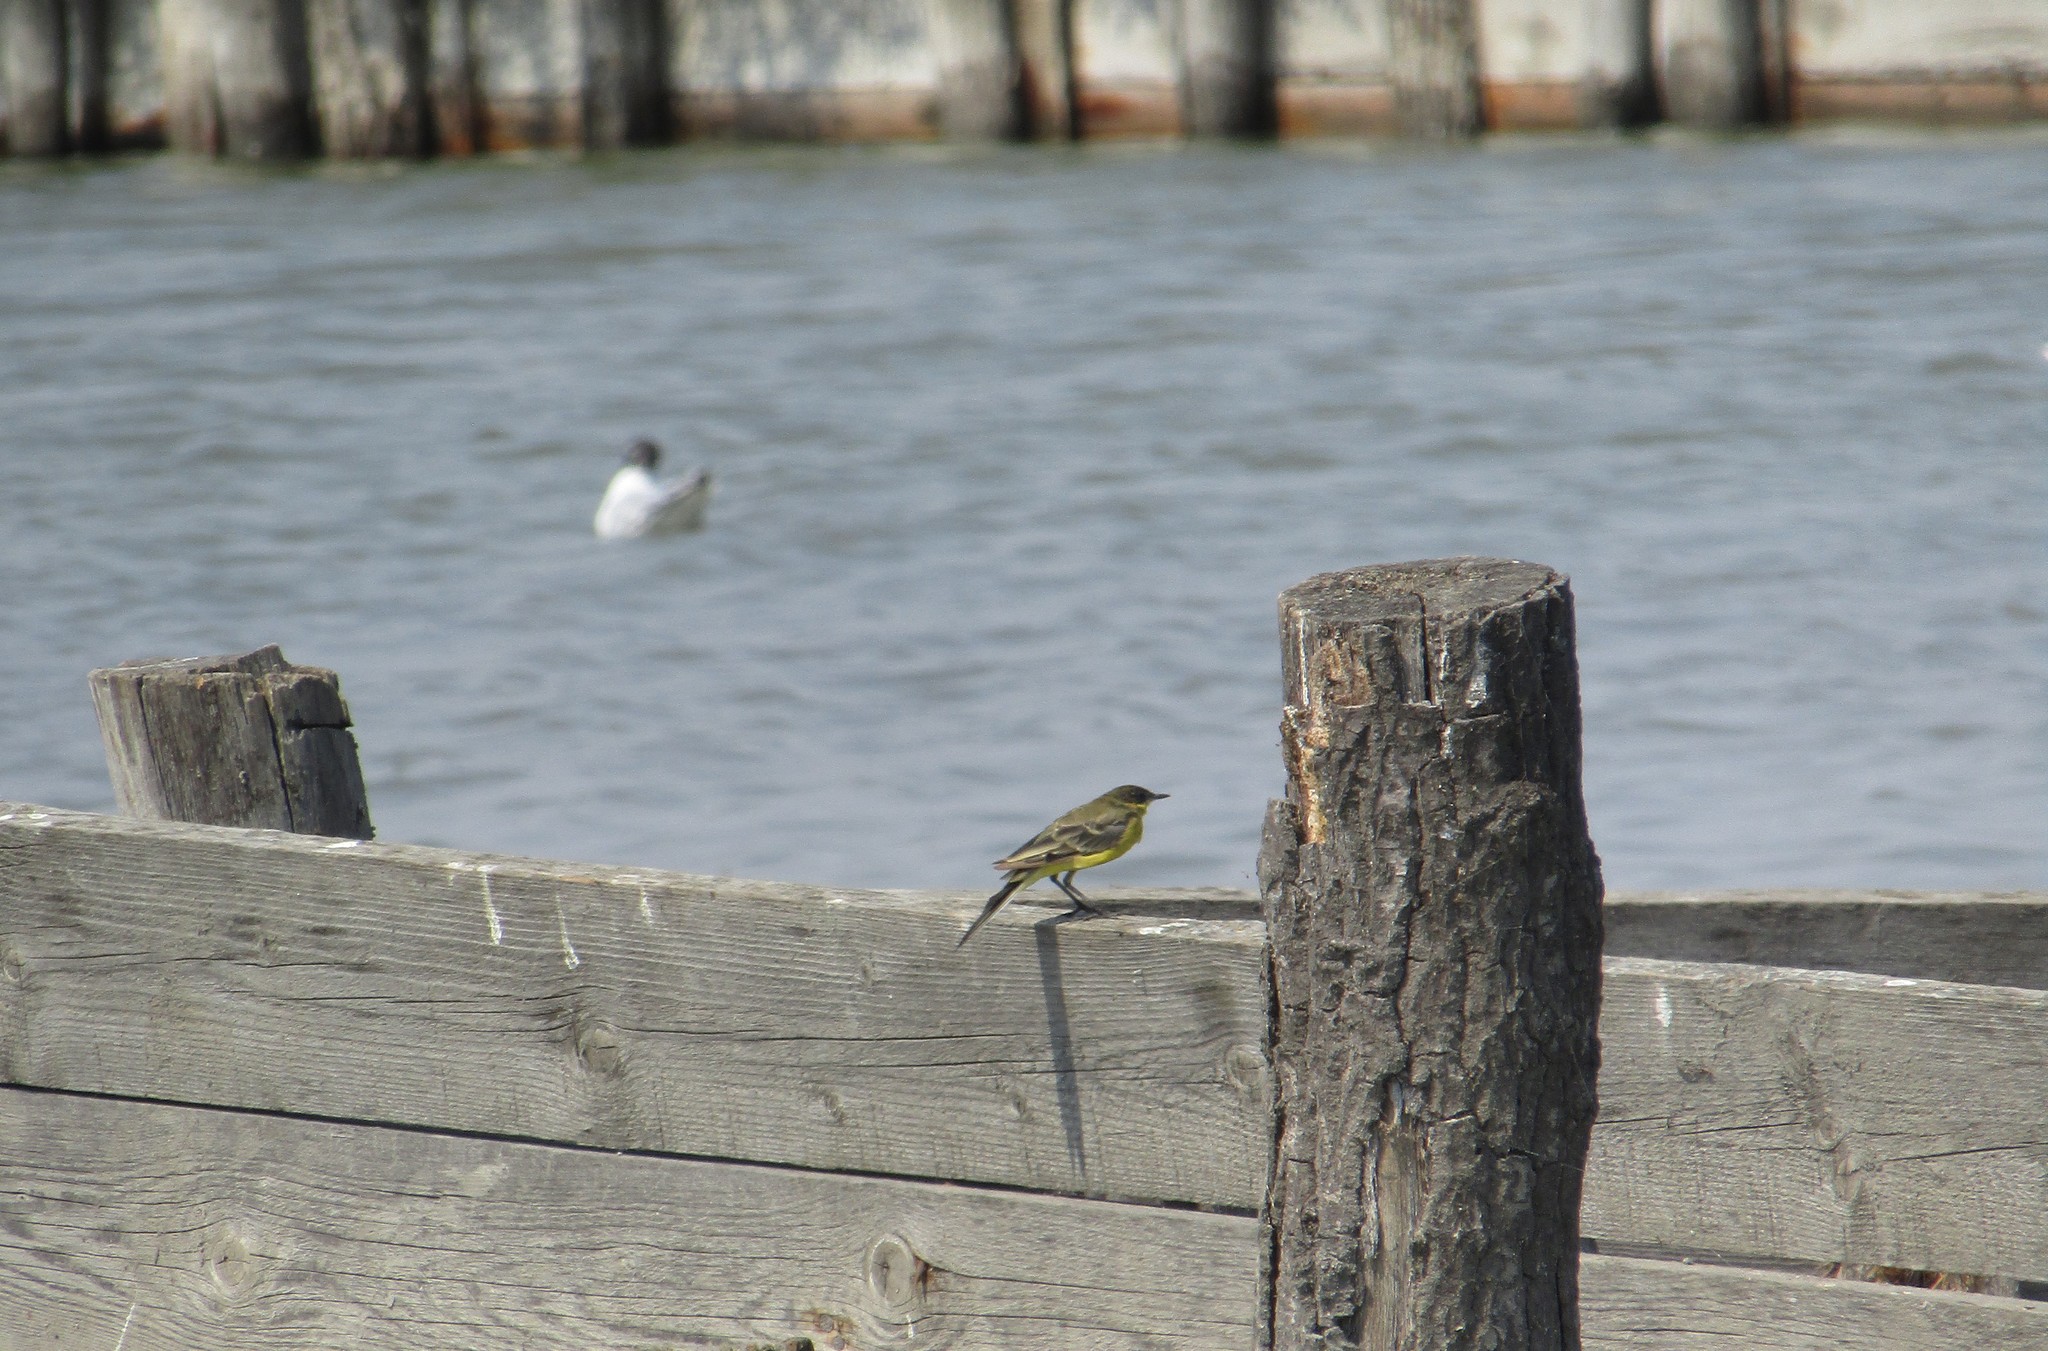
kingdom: Animalia
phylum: Chordata
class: Aves
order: Passeriformes
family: Motacillidae
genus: Motacilla
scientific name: Motacilla flava
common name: Western yellow wagtail
